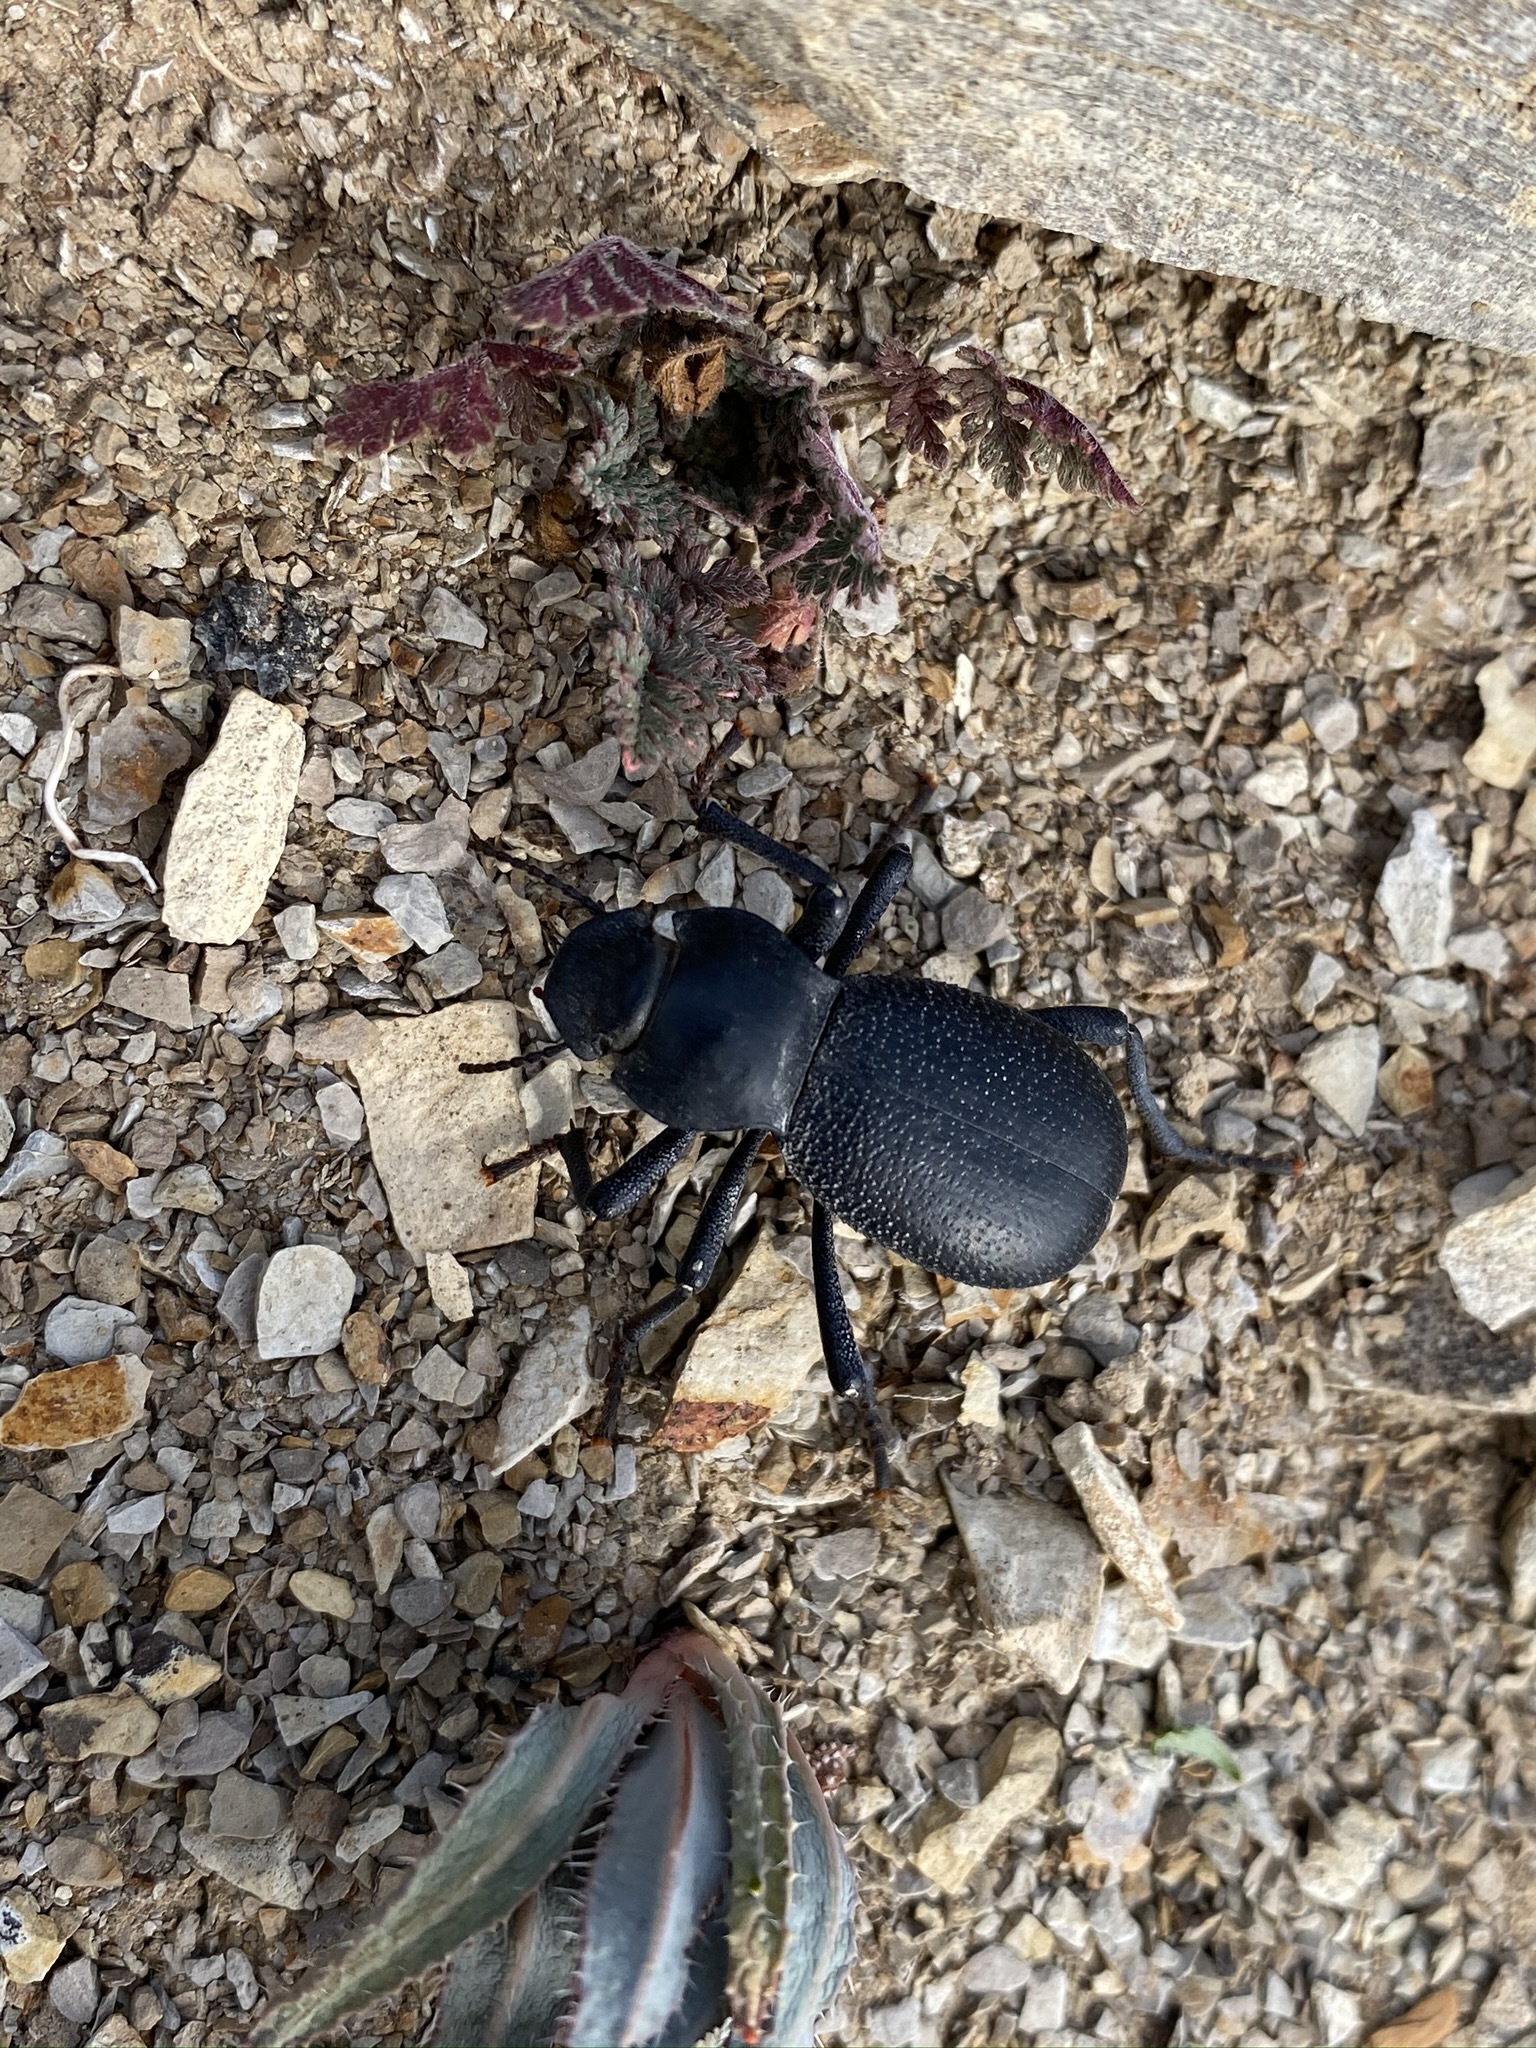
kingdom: Animalia
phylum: Arthropoda
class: Insecta
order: Coleoptera
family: Tenebrionidae
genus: Schizillus
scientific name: Schizillus laticeps
